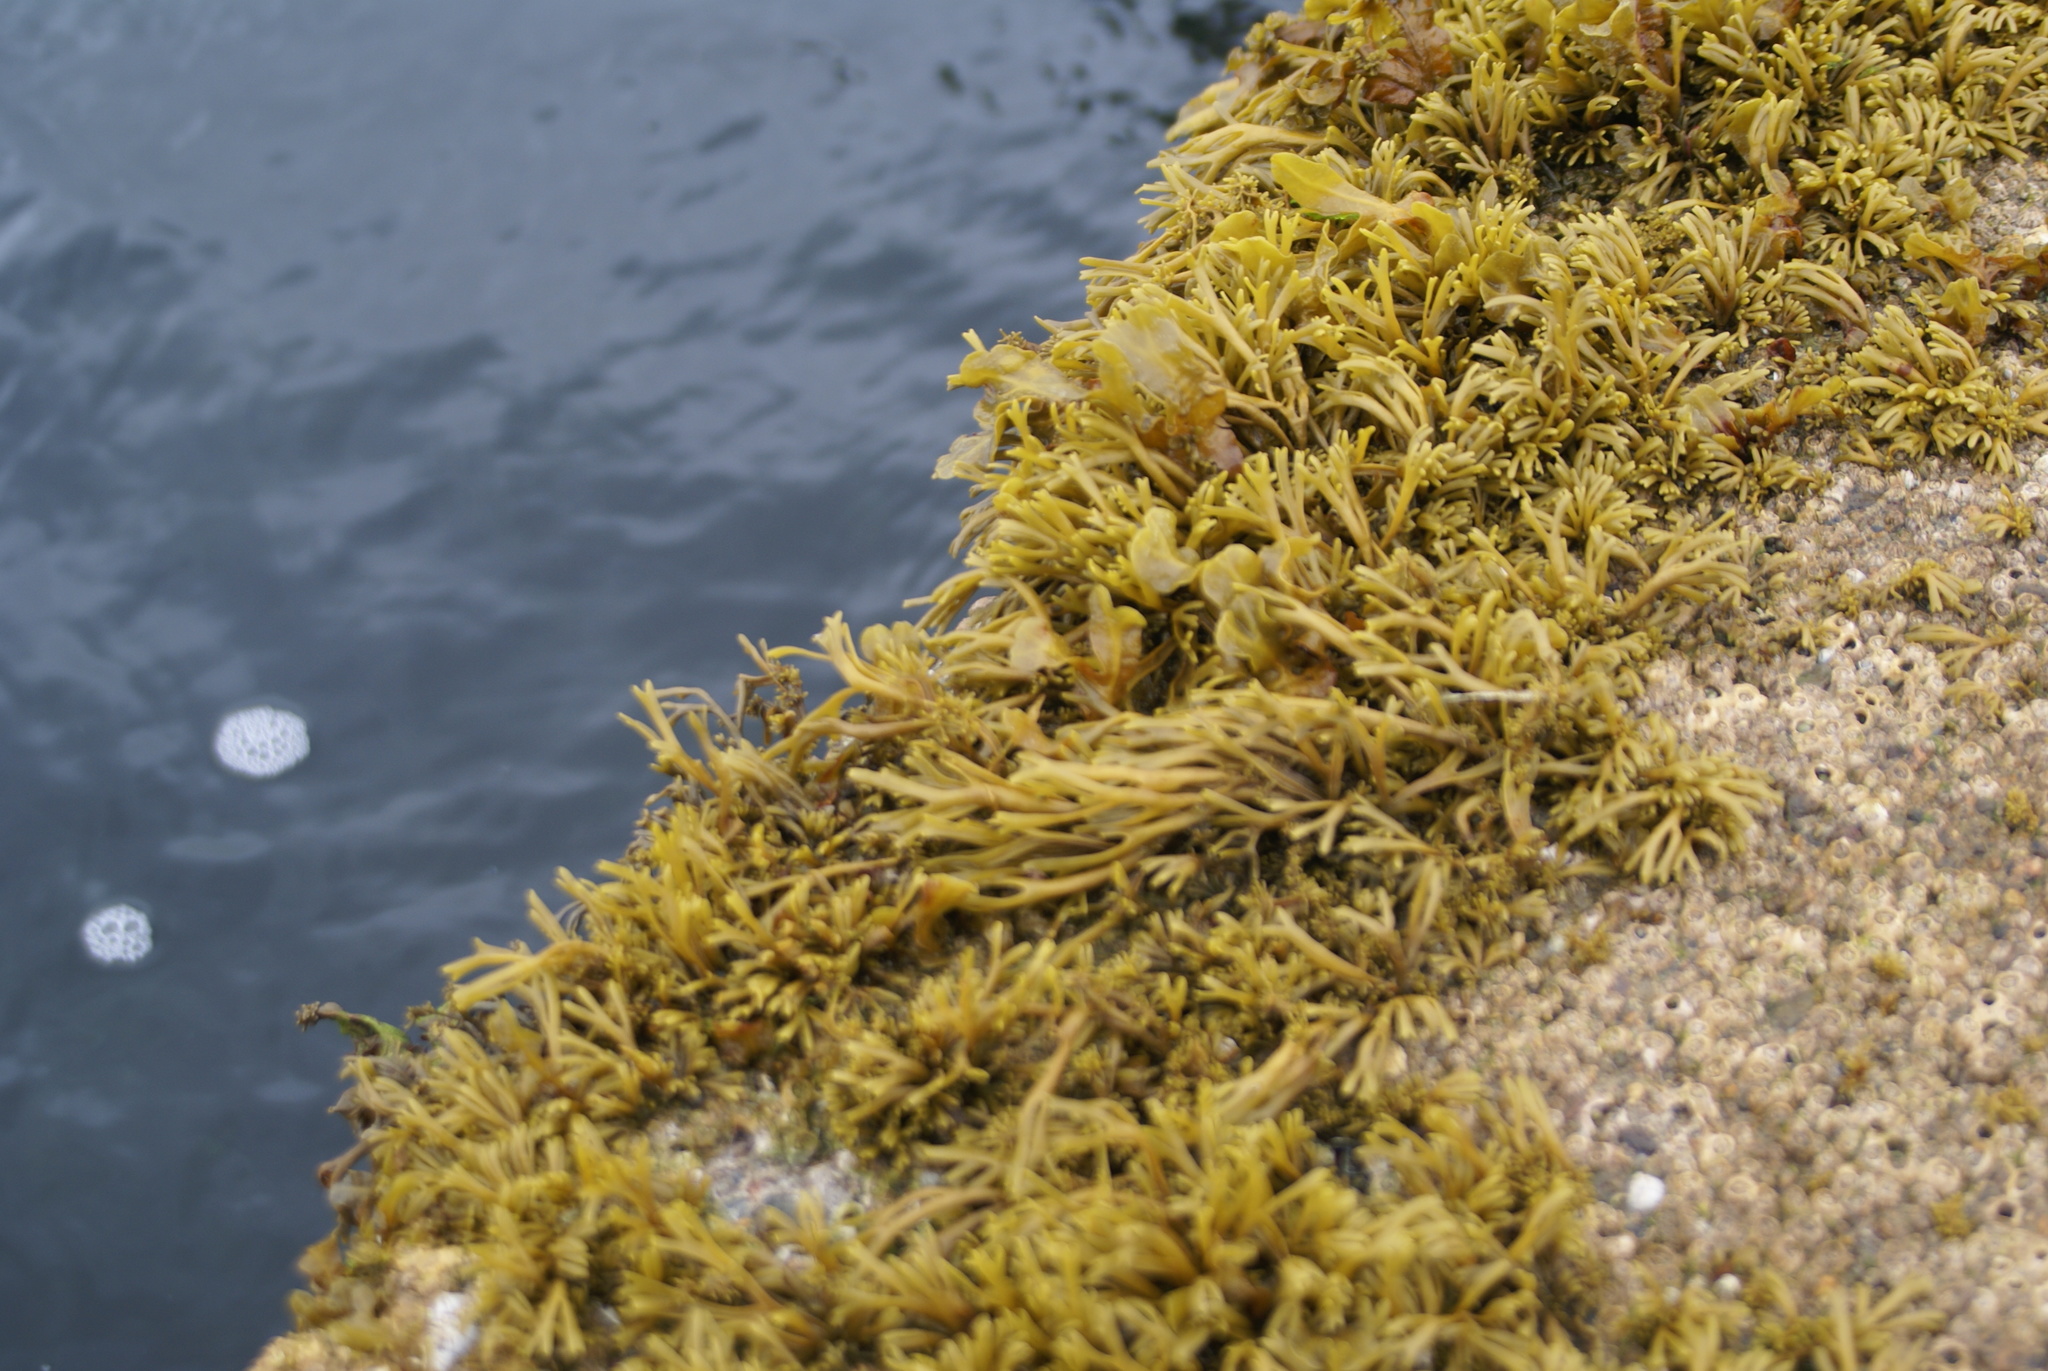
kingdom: Chromista
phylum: Ochrophyta
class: Phaeophyceae
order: Fucales
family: Fucaceae
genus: Pelvetia
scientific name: Pelvetia canaliculata
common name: Channelled wrack
